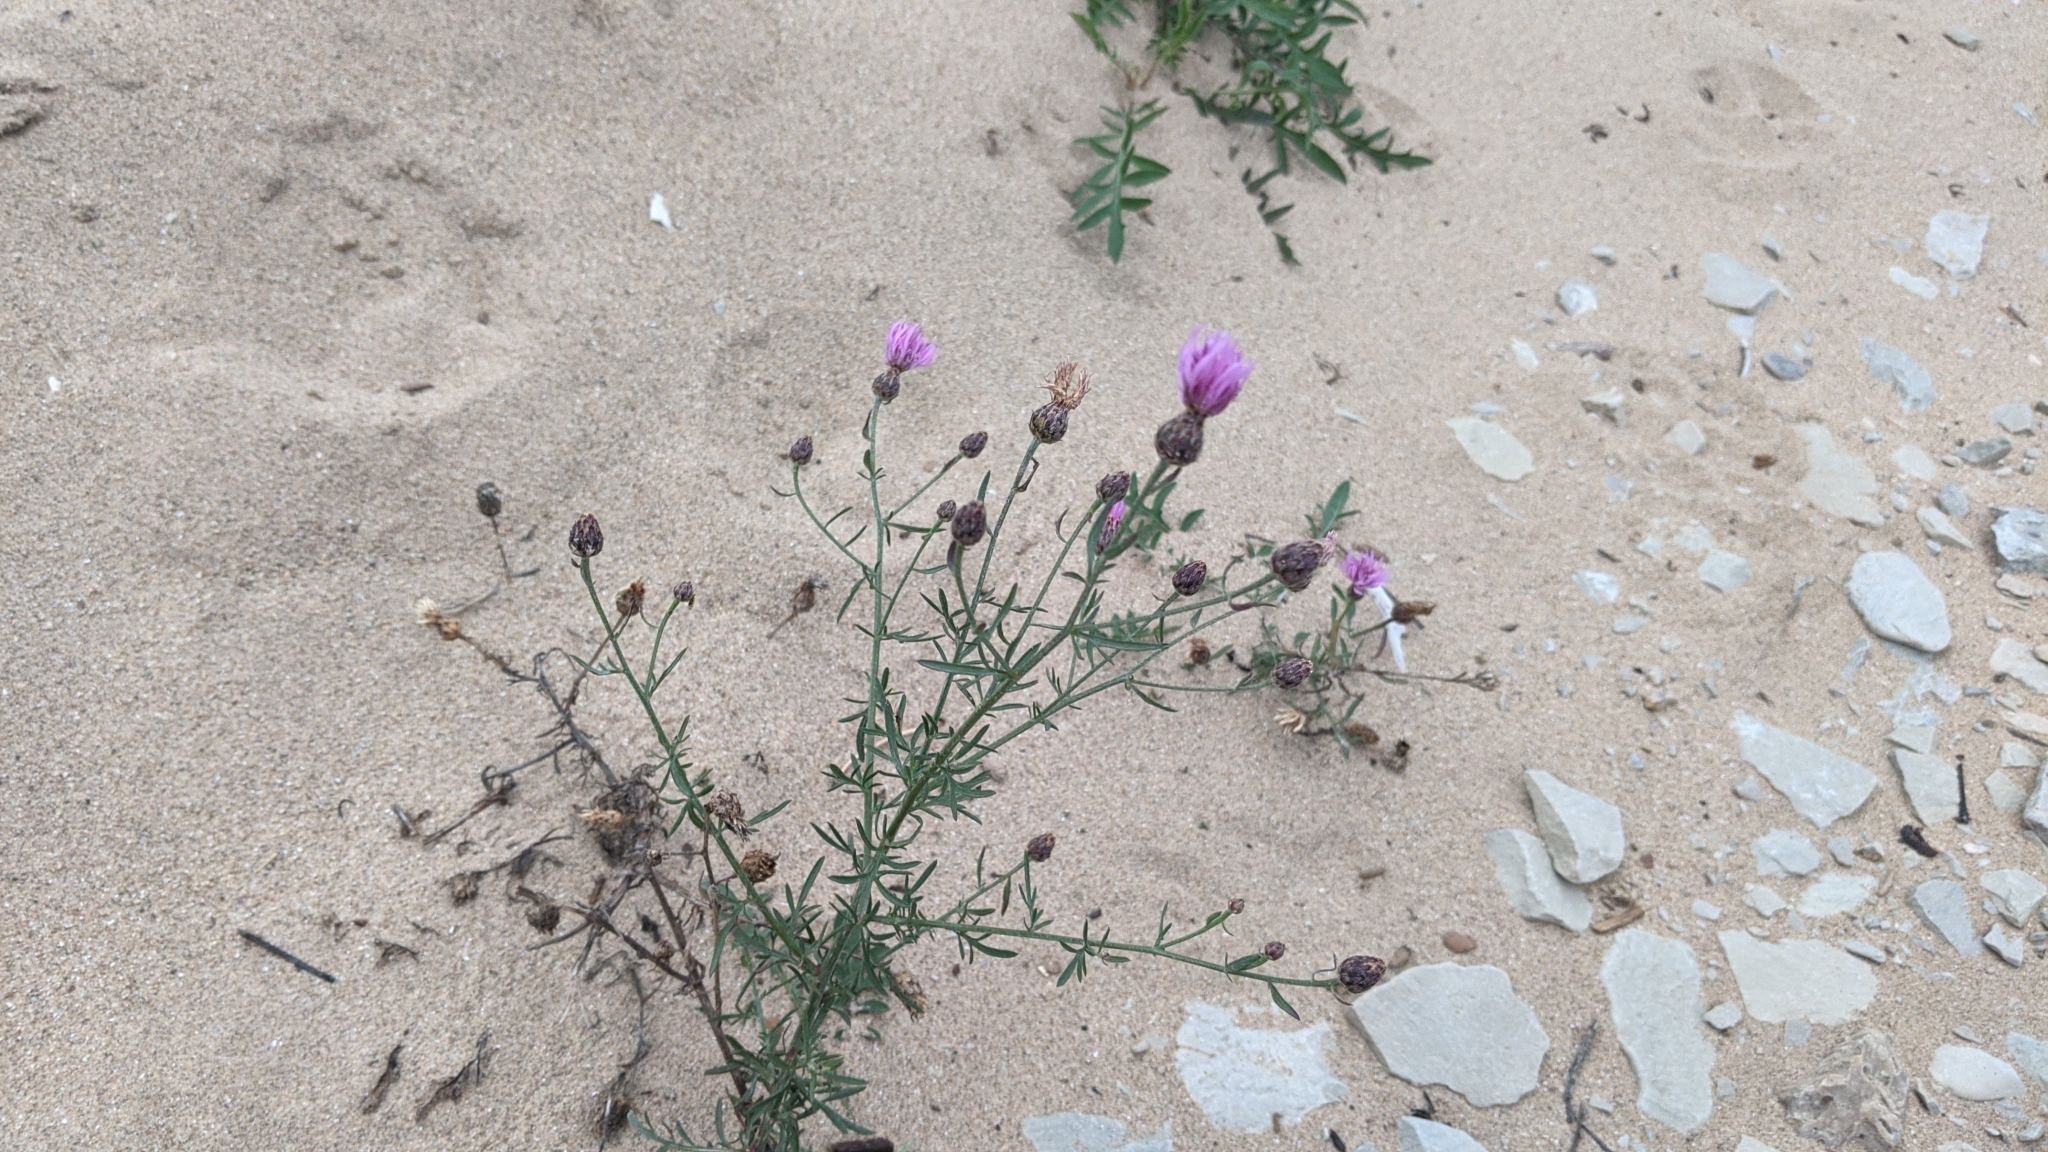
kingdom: Plantae
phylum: Tracheophyta
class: Magnoliopsida
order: Asterales
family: Asteraceae
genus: Centaurea
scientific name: Centaurea stoebe
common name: Spotted knapweed
